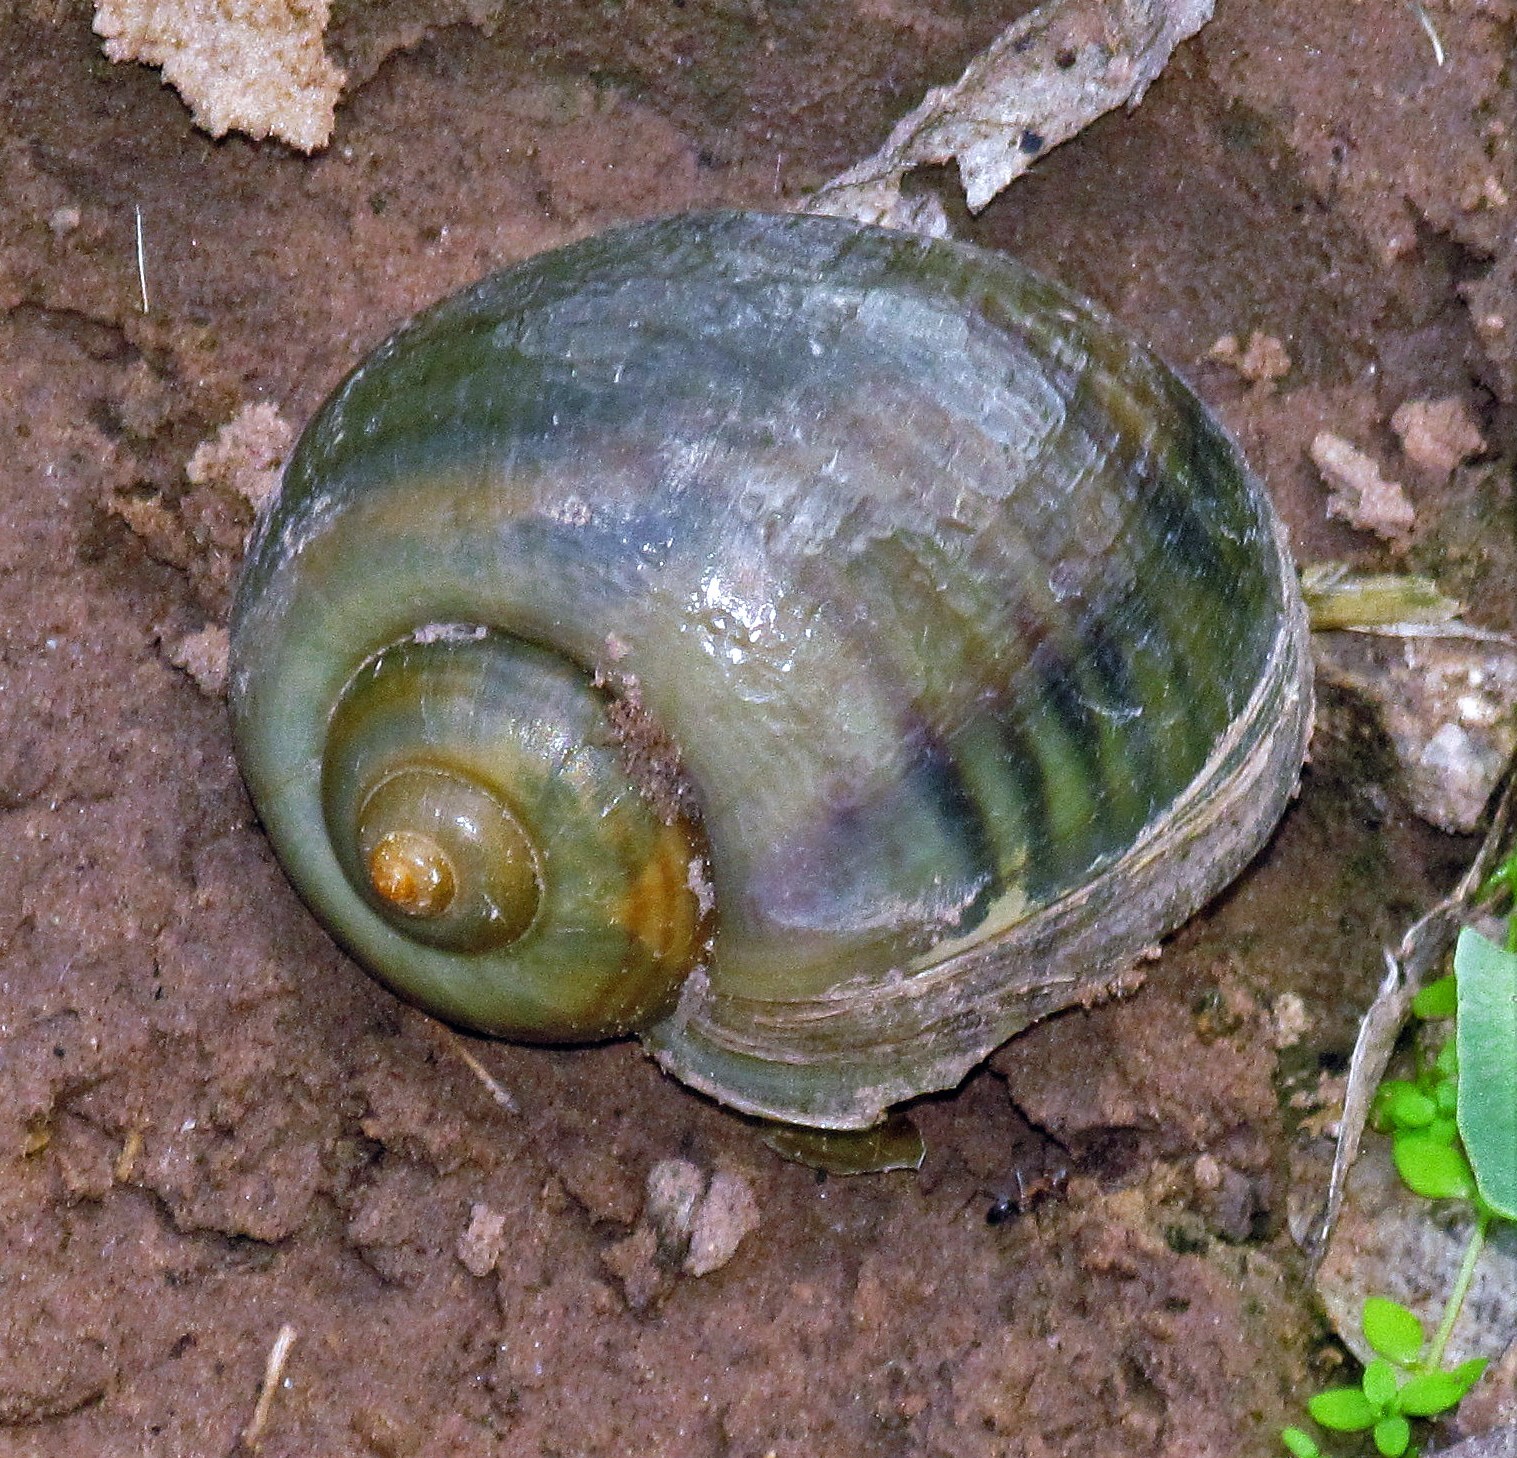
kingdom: Animalia
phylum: Mollusca
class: Gastropoda
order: Architaenioglossa
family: Ampullariidae
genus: Pomacea
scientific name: Pomacea canaliculata
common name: Channeled applesnail
